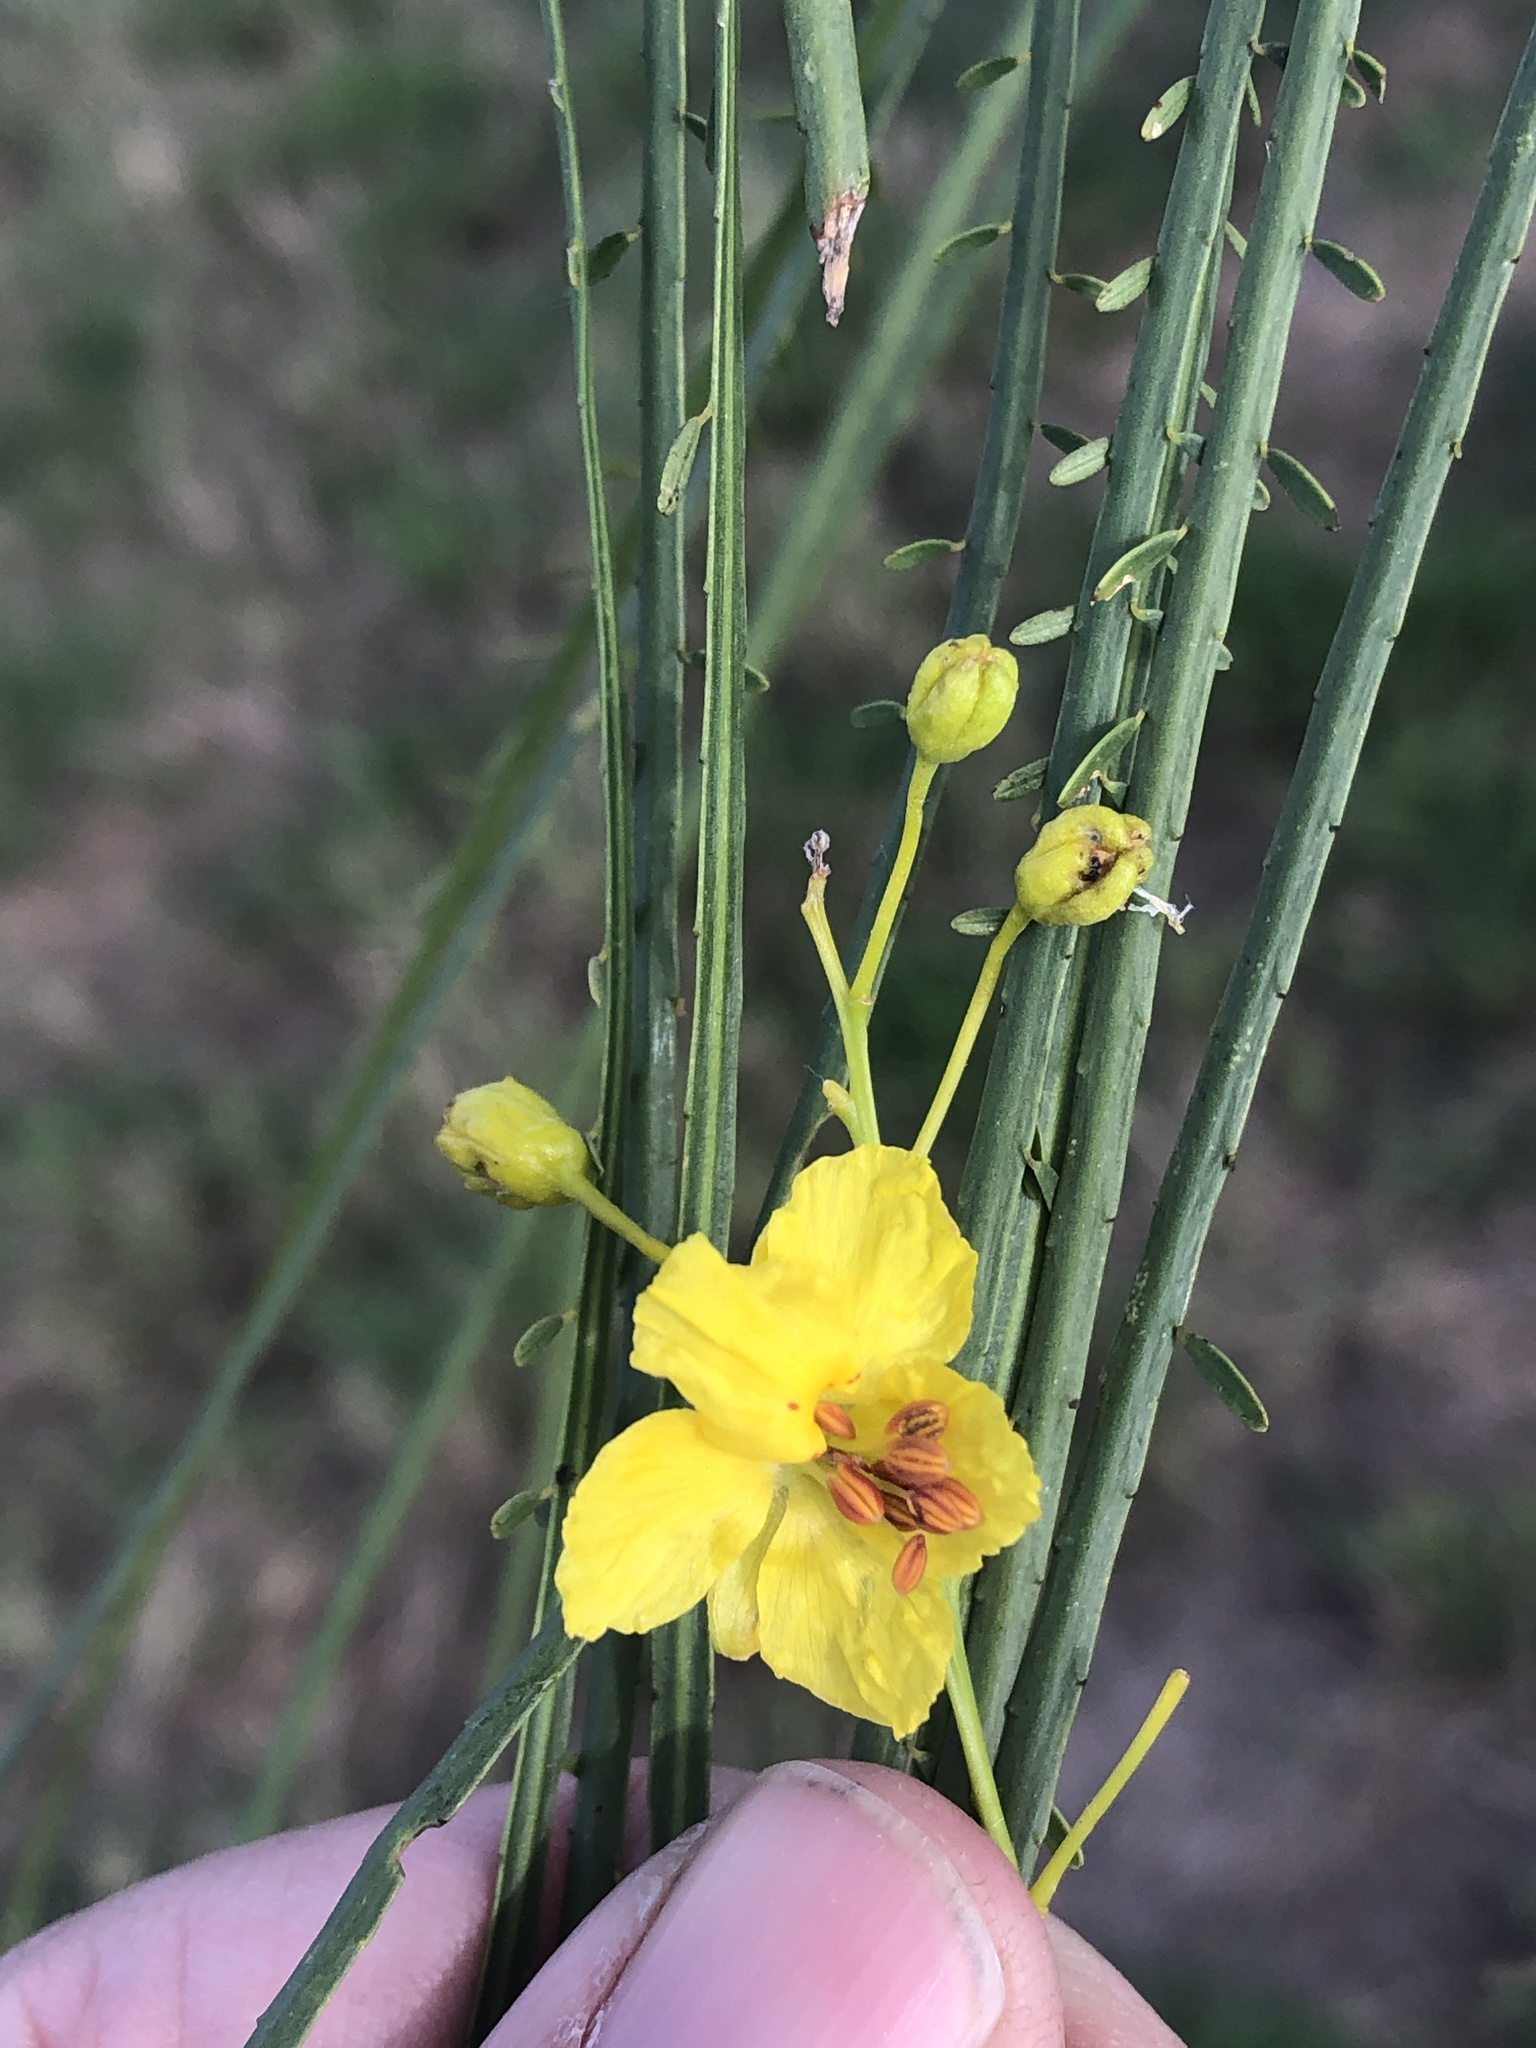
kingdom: Plantae
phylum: Tracheophyta
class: Magnoliopsida
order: Fabales
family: Fabaceae
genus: Parkinsonia
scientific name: Parkinsonia aculeata
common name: Jerusalem thorn
